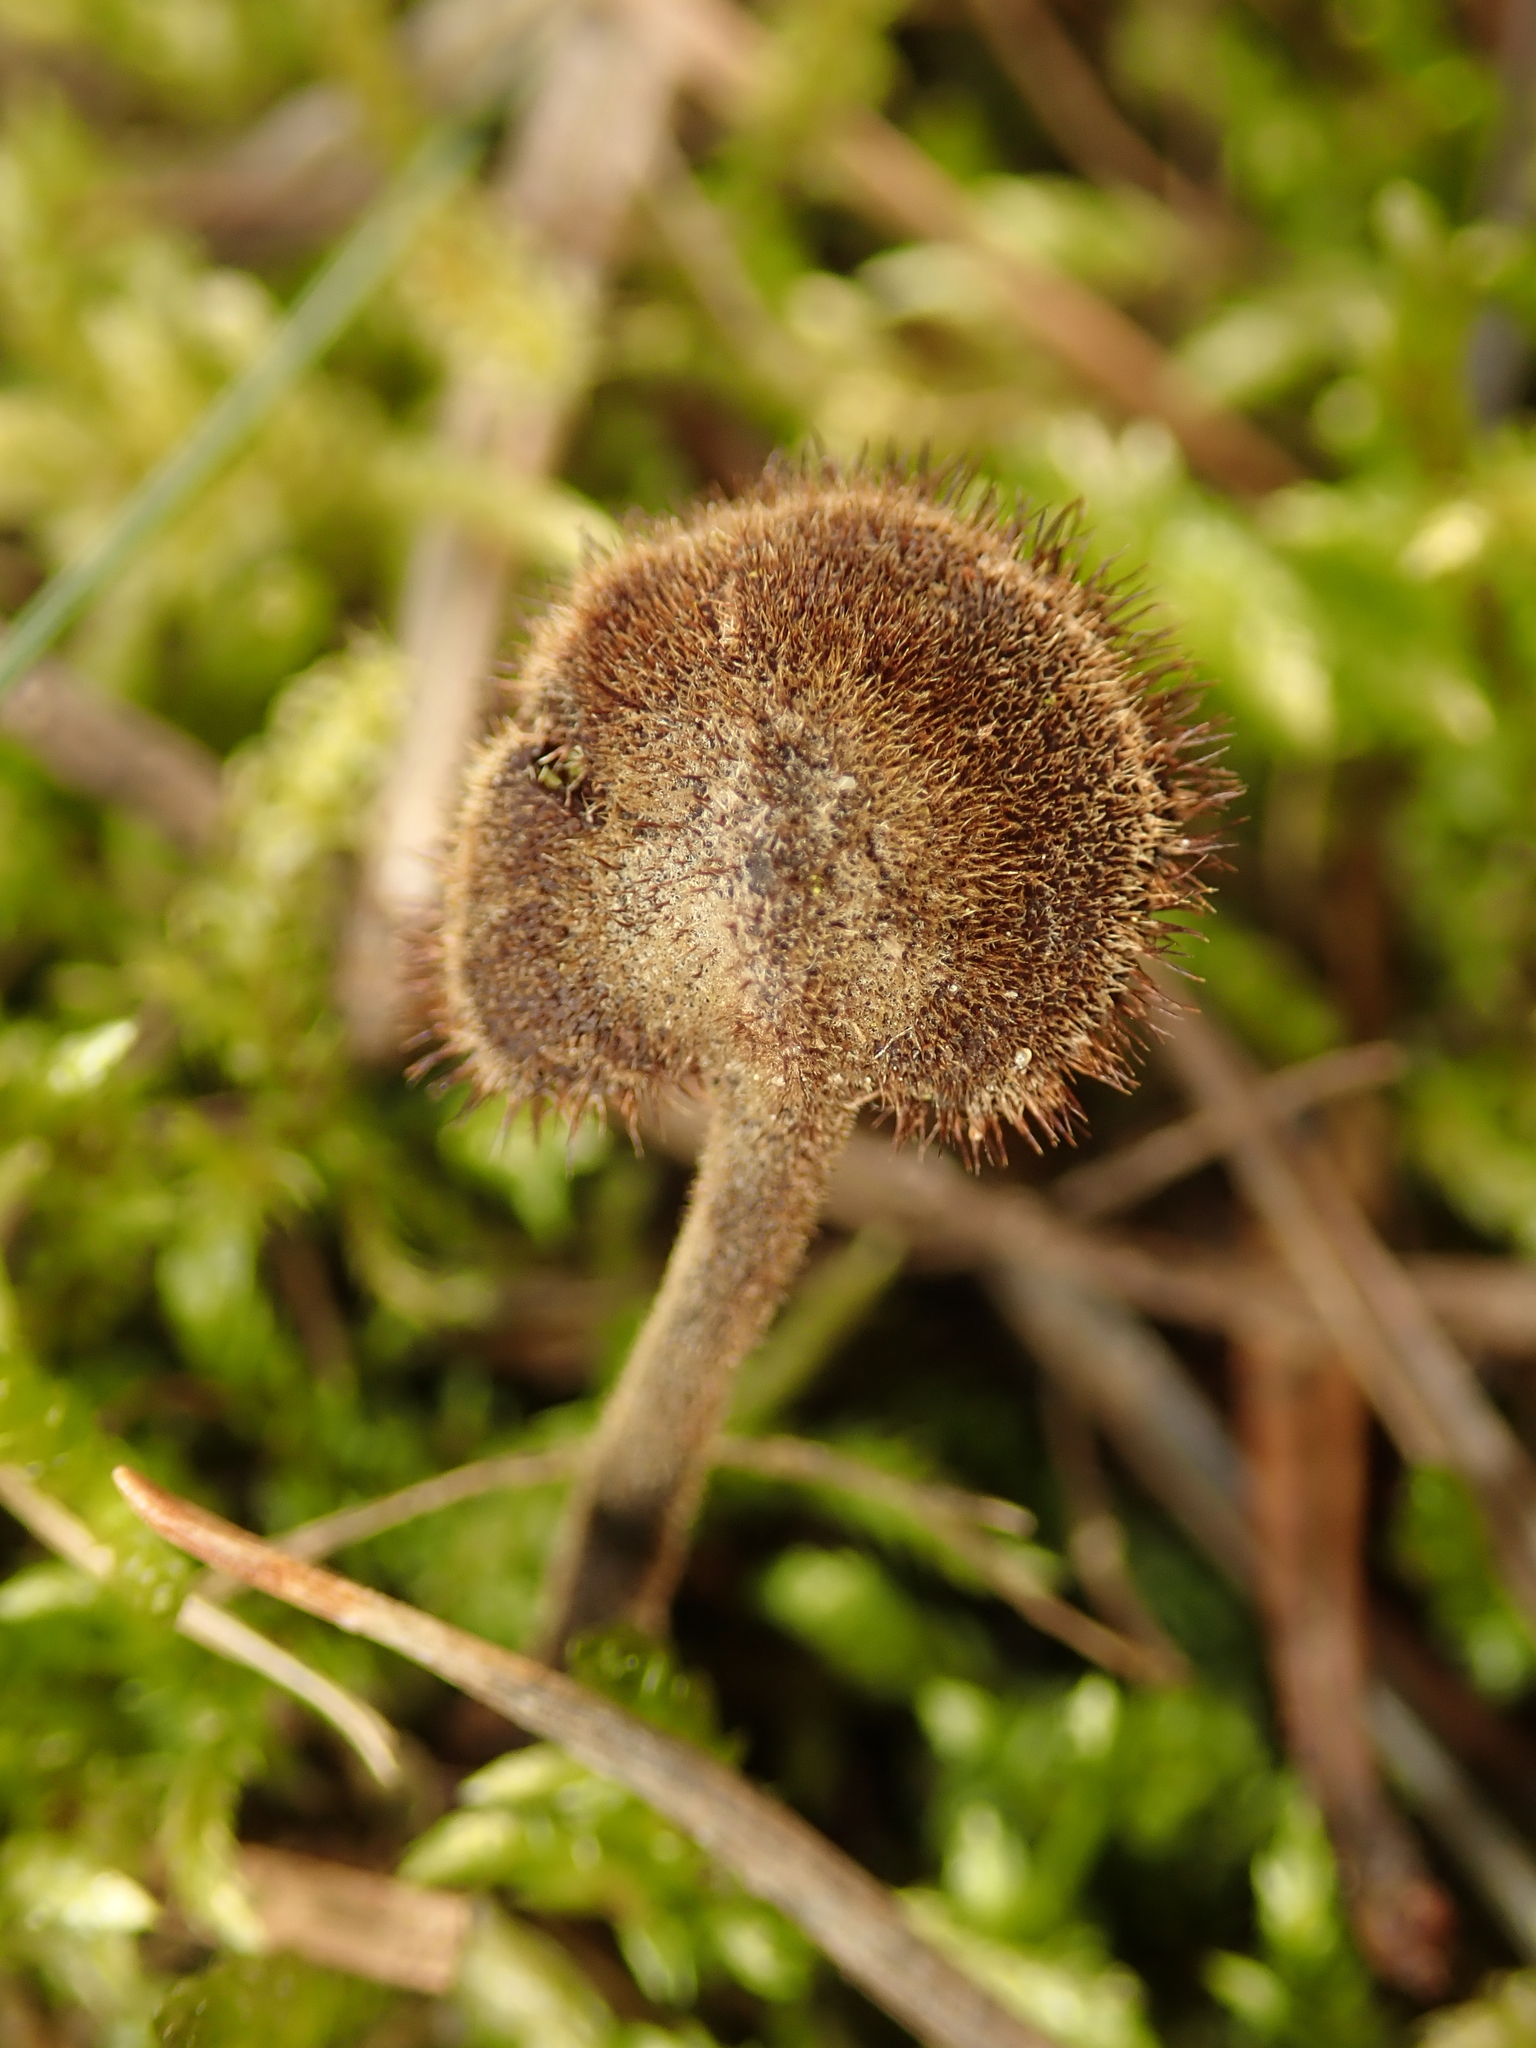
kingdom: Fungi
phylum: Basidiomycota
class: Agaricomycetes
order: Russulales
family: Auriscalpiaceae
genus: Auriscalpium
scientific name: Auriscalpium vulgare
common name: Earpick fungus
